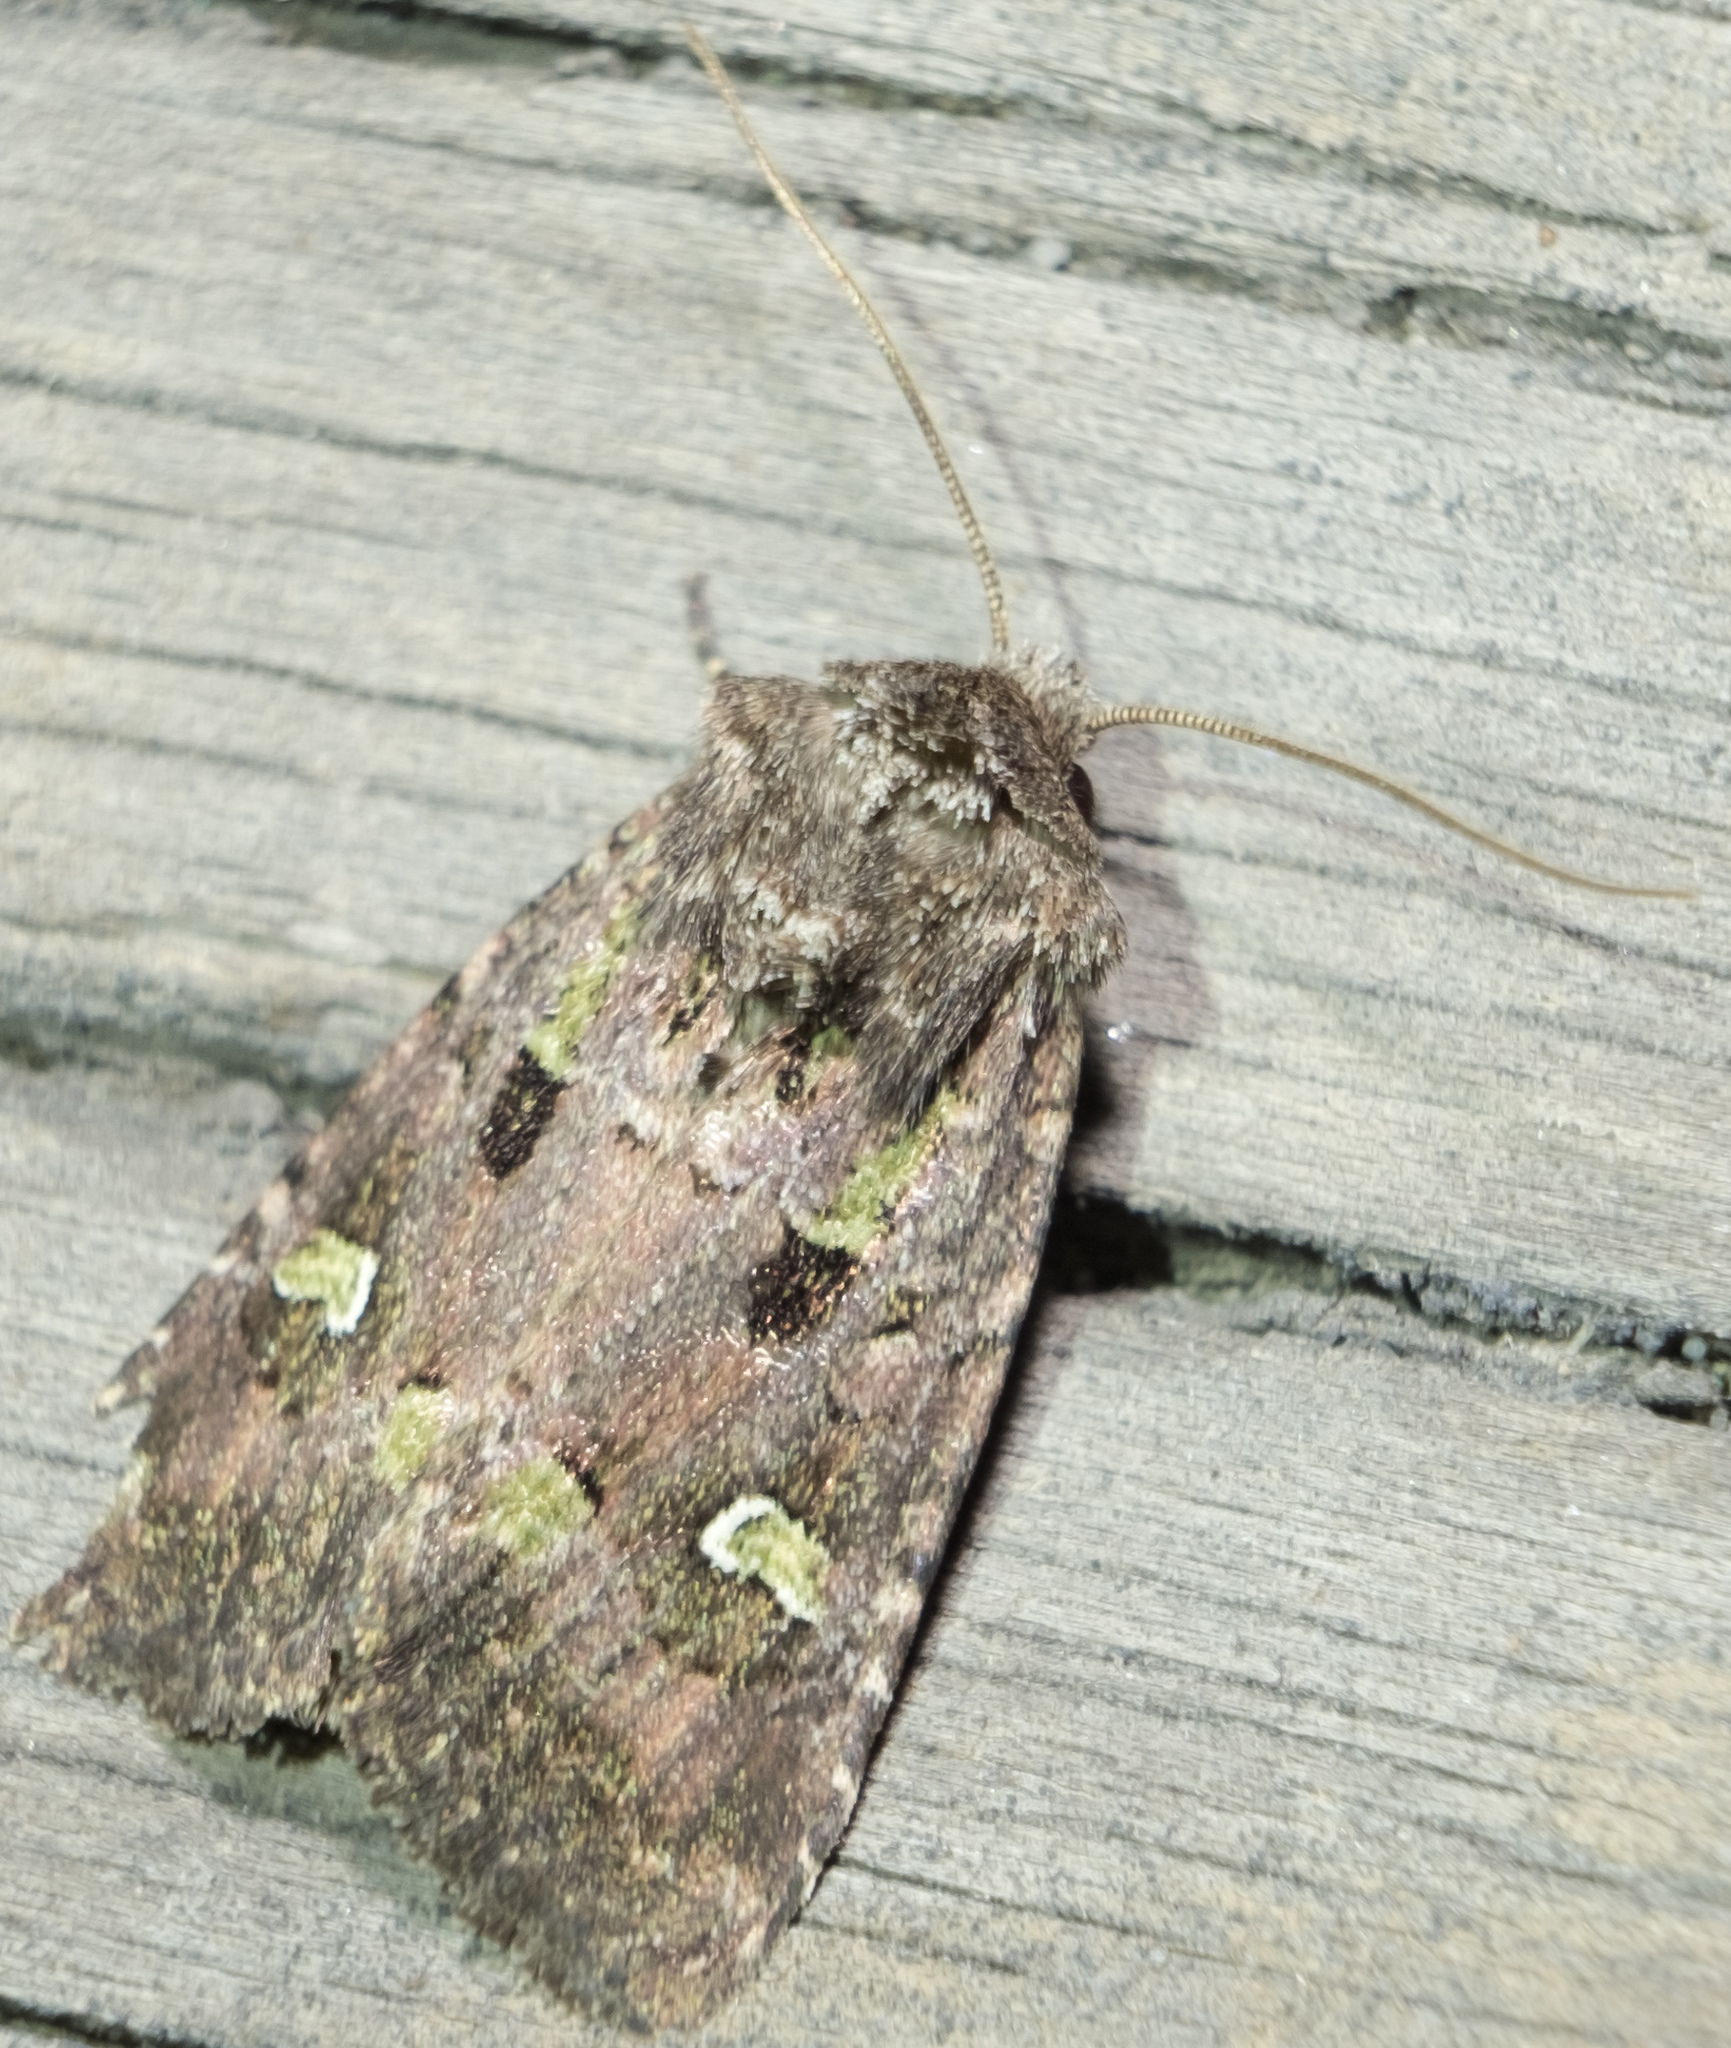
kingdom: Animalia
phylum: Arthropoda
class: Insecta
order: Lepidoptera
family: Noctuidae
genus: Lacinipolia
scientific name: Lacinipolia renigera
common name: Kidney-spotted minor
